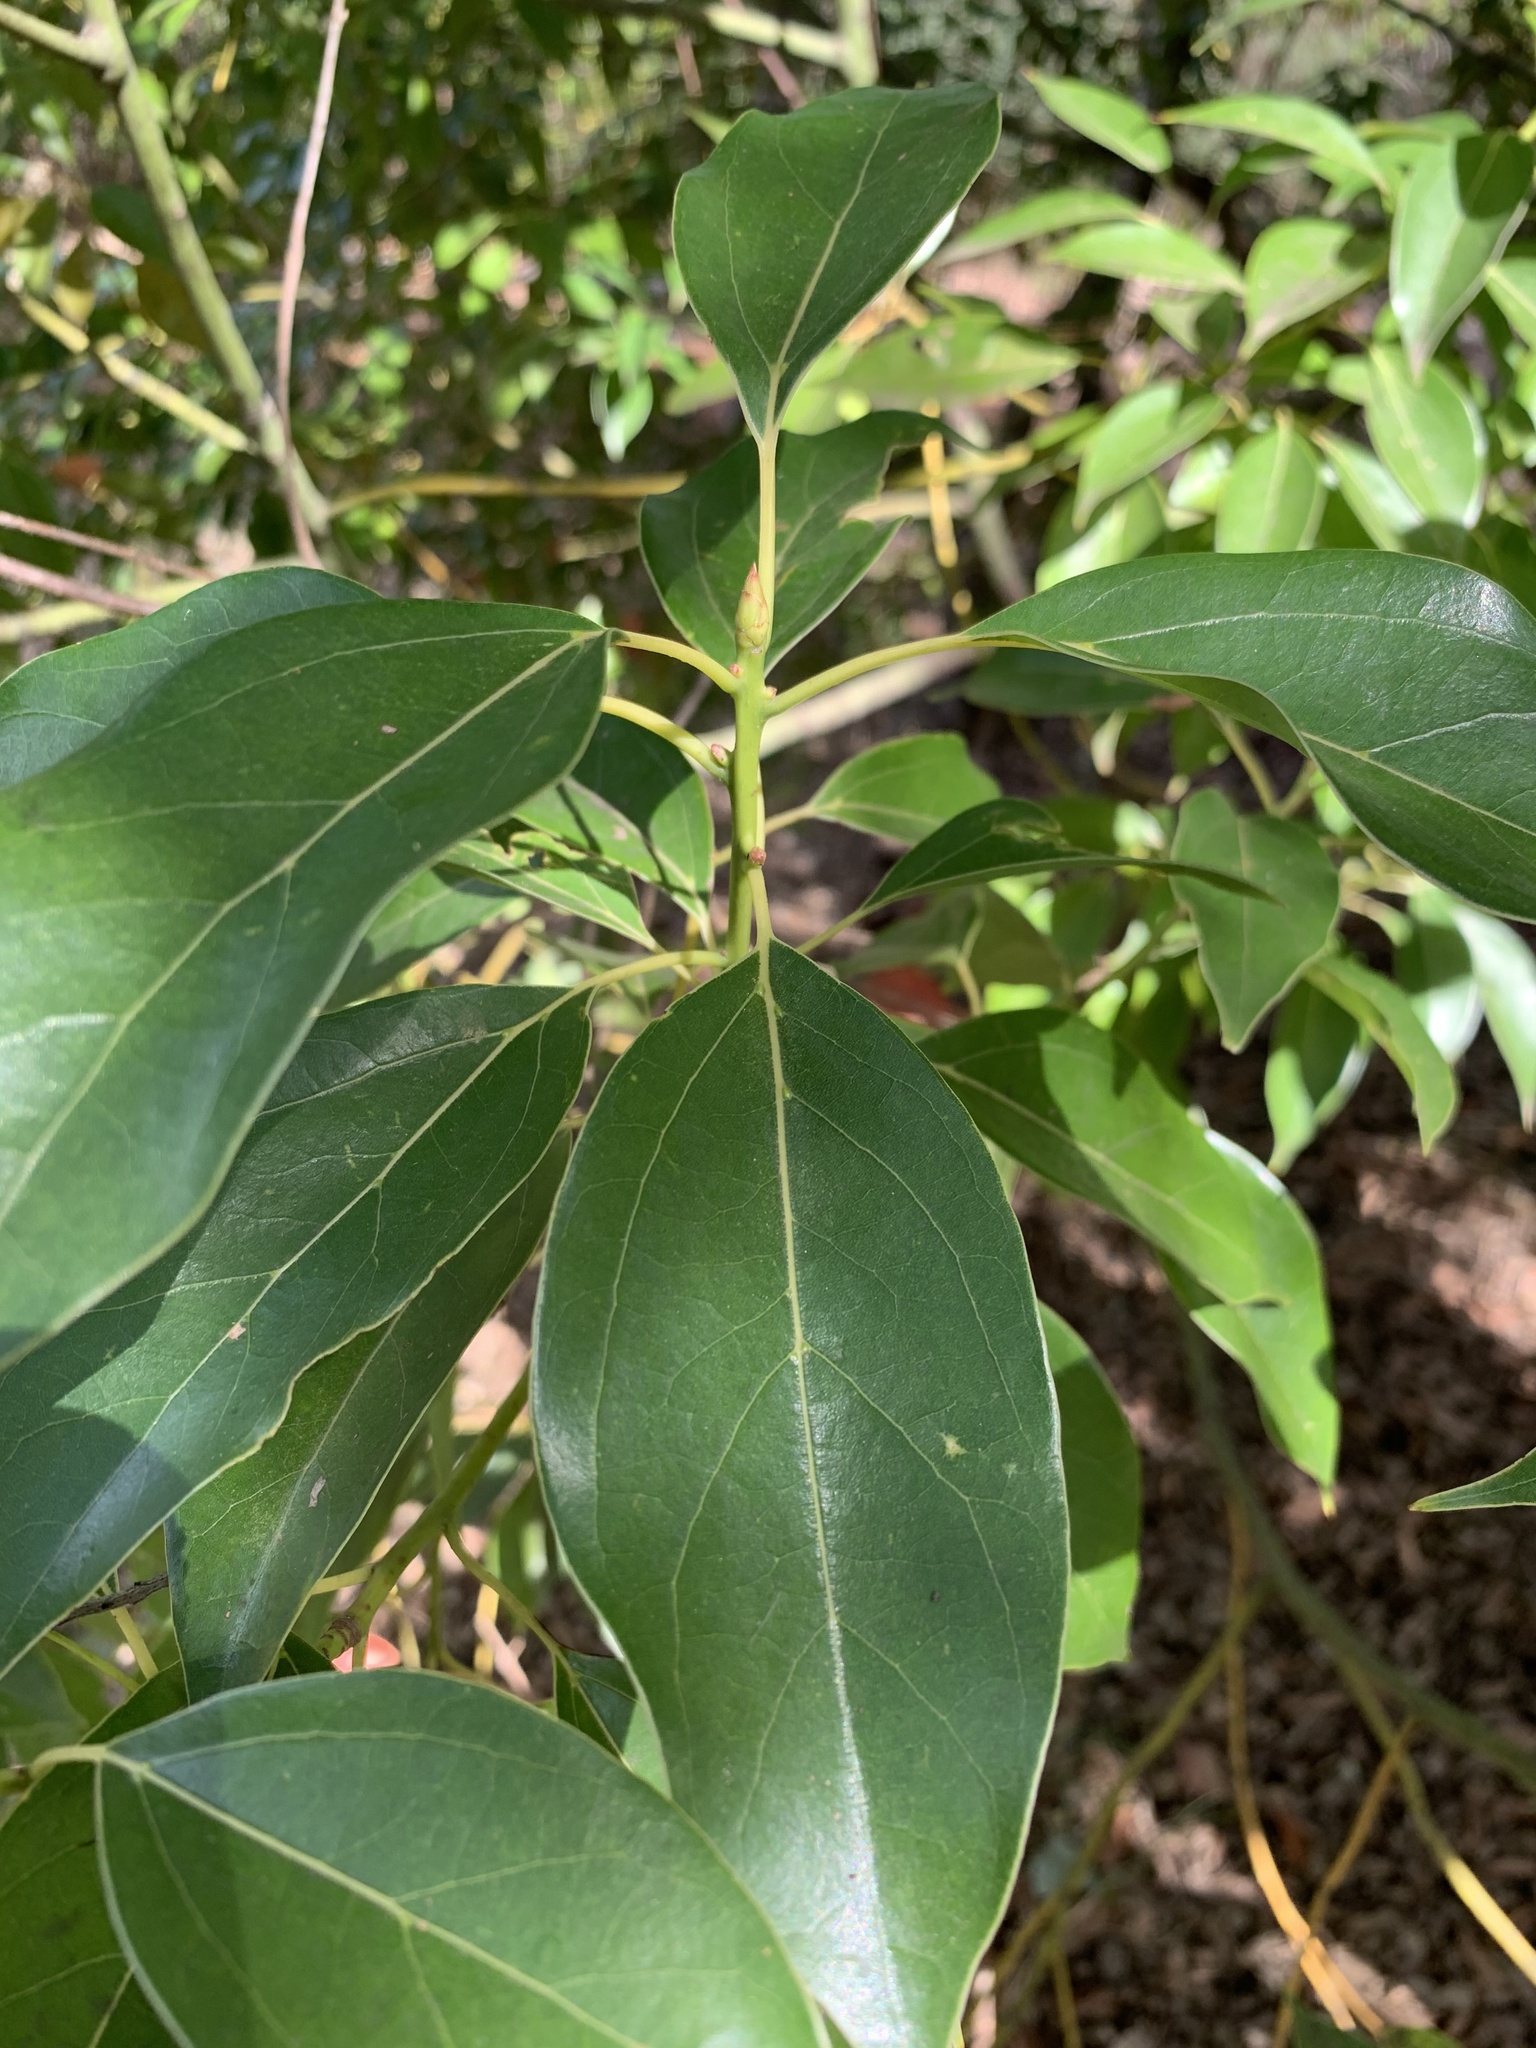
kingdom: Plantae
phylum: Tracheophyta
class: Magnoliopsida
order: Laurales
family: Lauraceae
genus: Cinnamomum
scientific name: Cinnamomum camphora
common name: Camphortree
